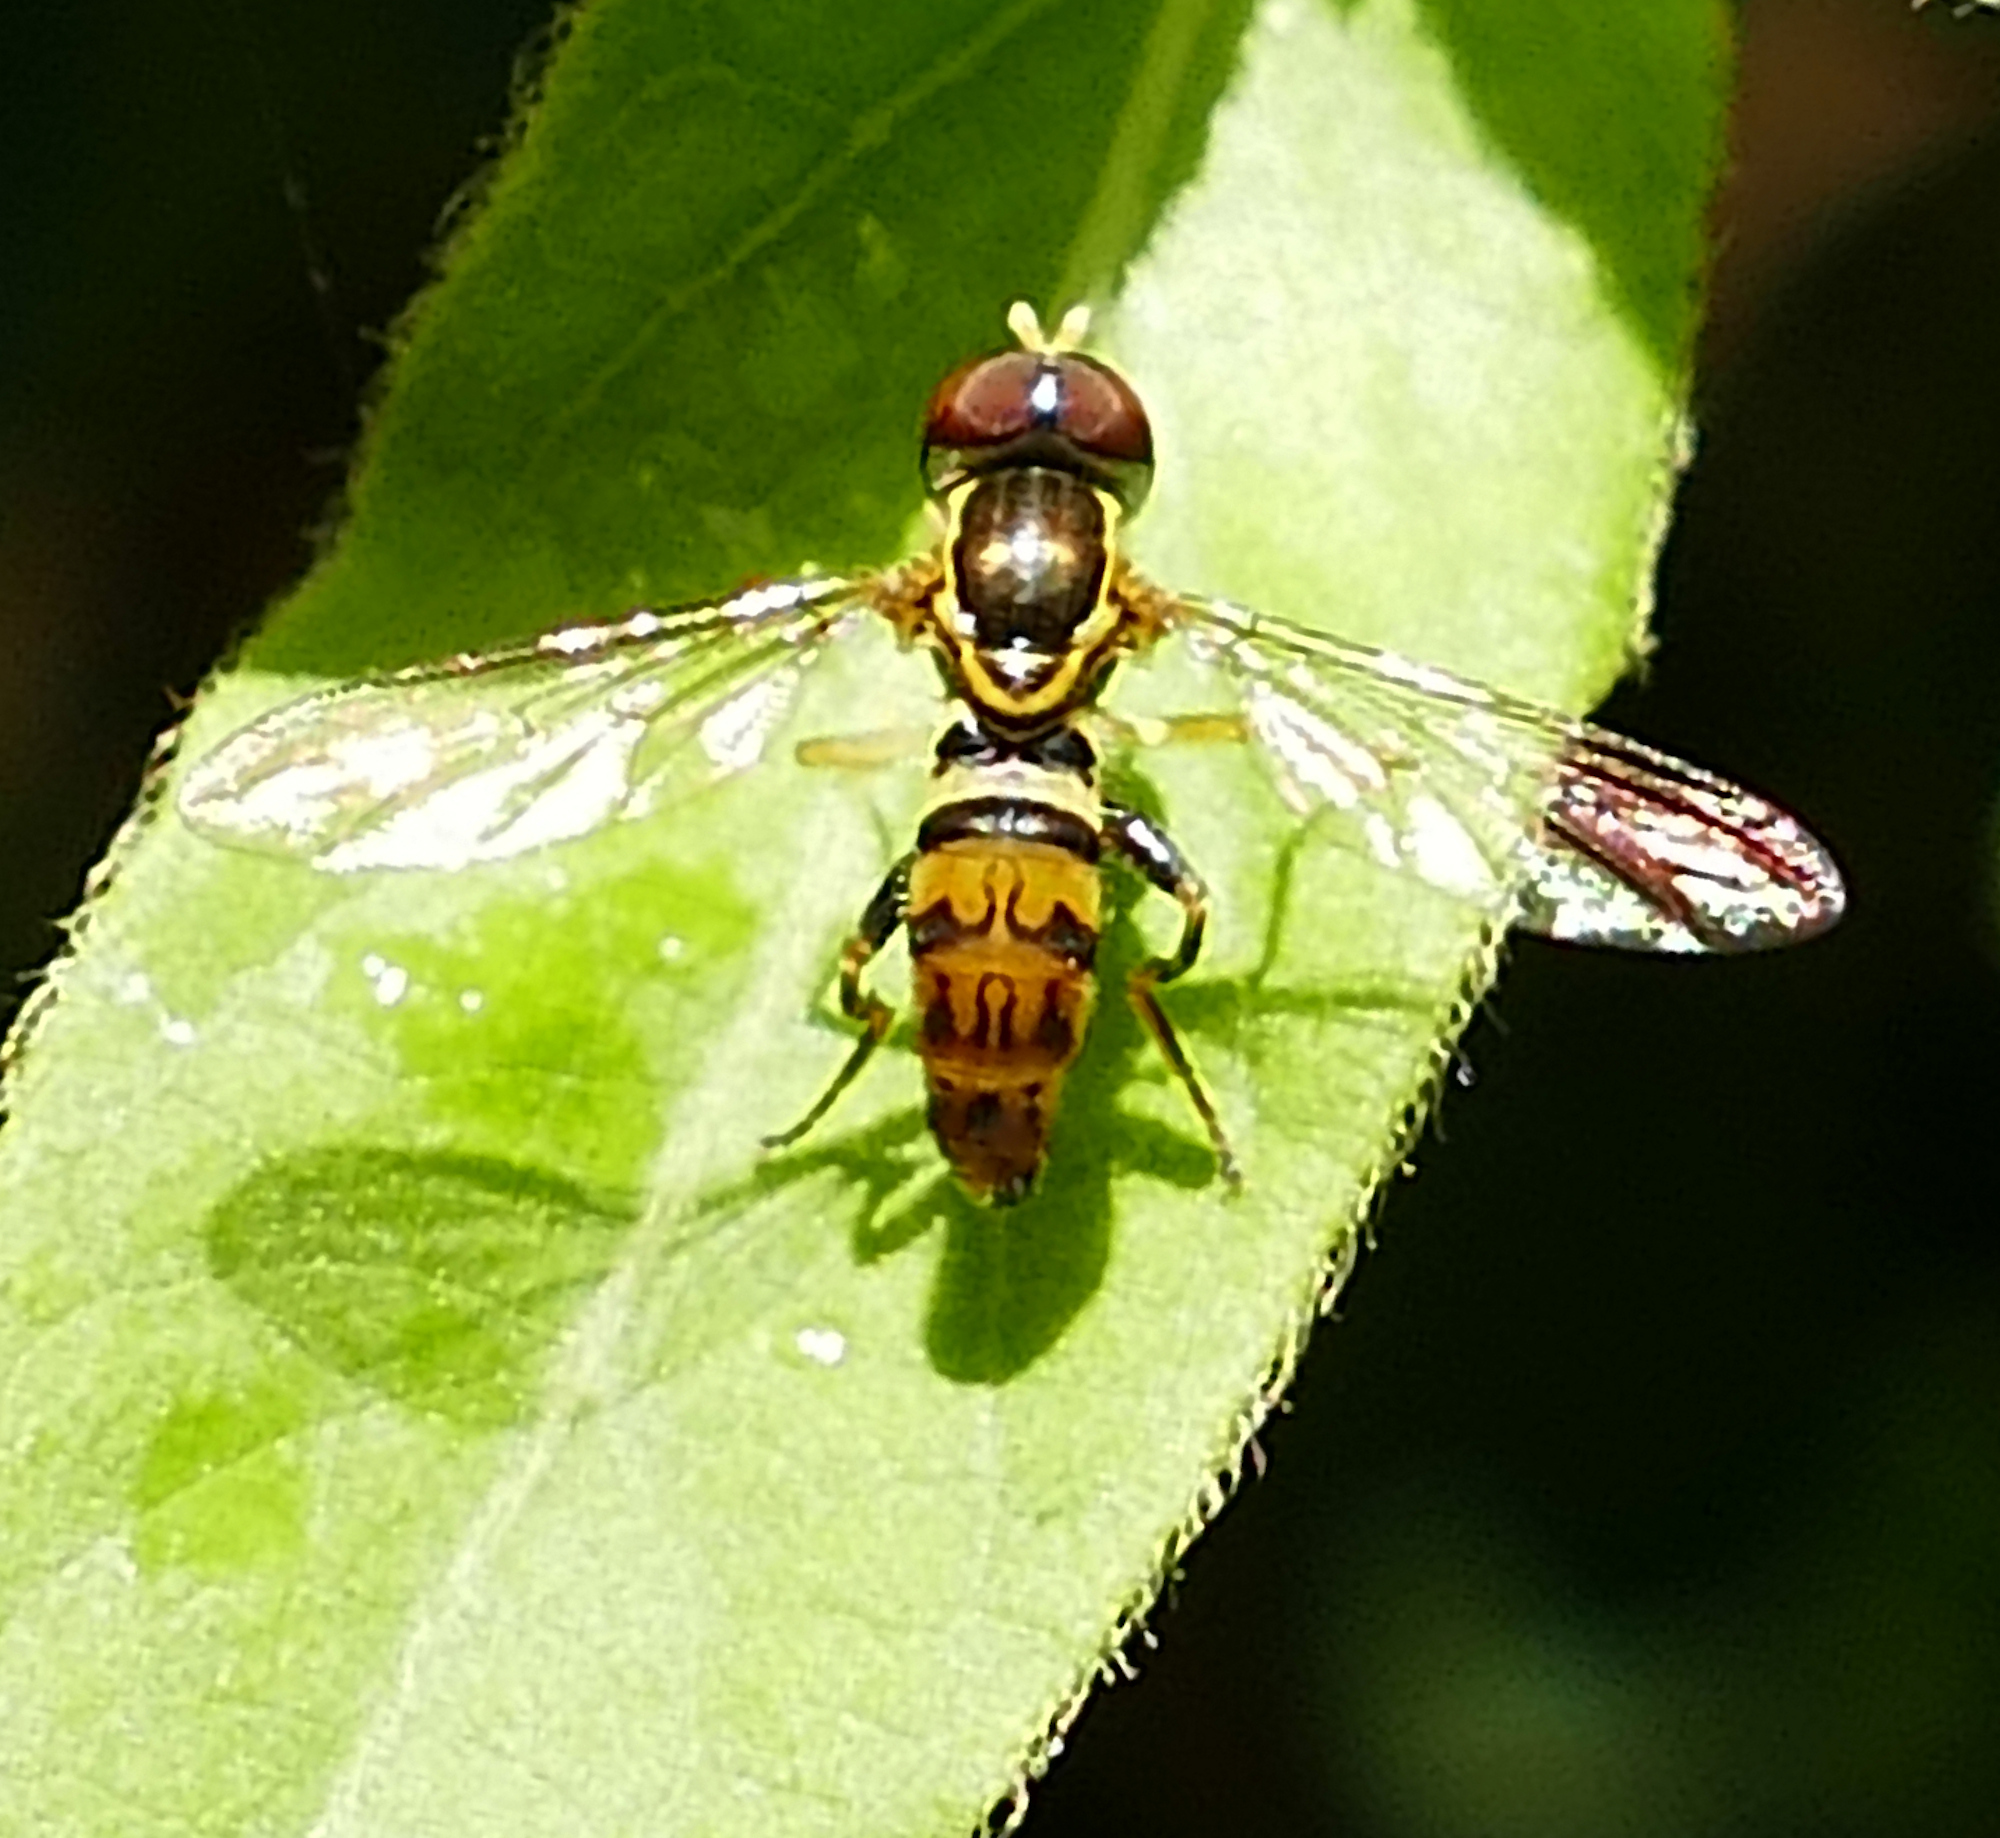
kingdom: Animalia
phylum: Arthropoda
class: Insecta
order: Diptera
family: Syrphidae
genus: Toxomerus
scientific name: Toxomerus geminatus
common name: Eastern calligrapher
